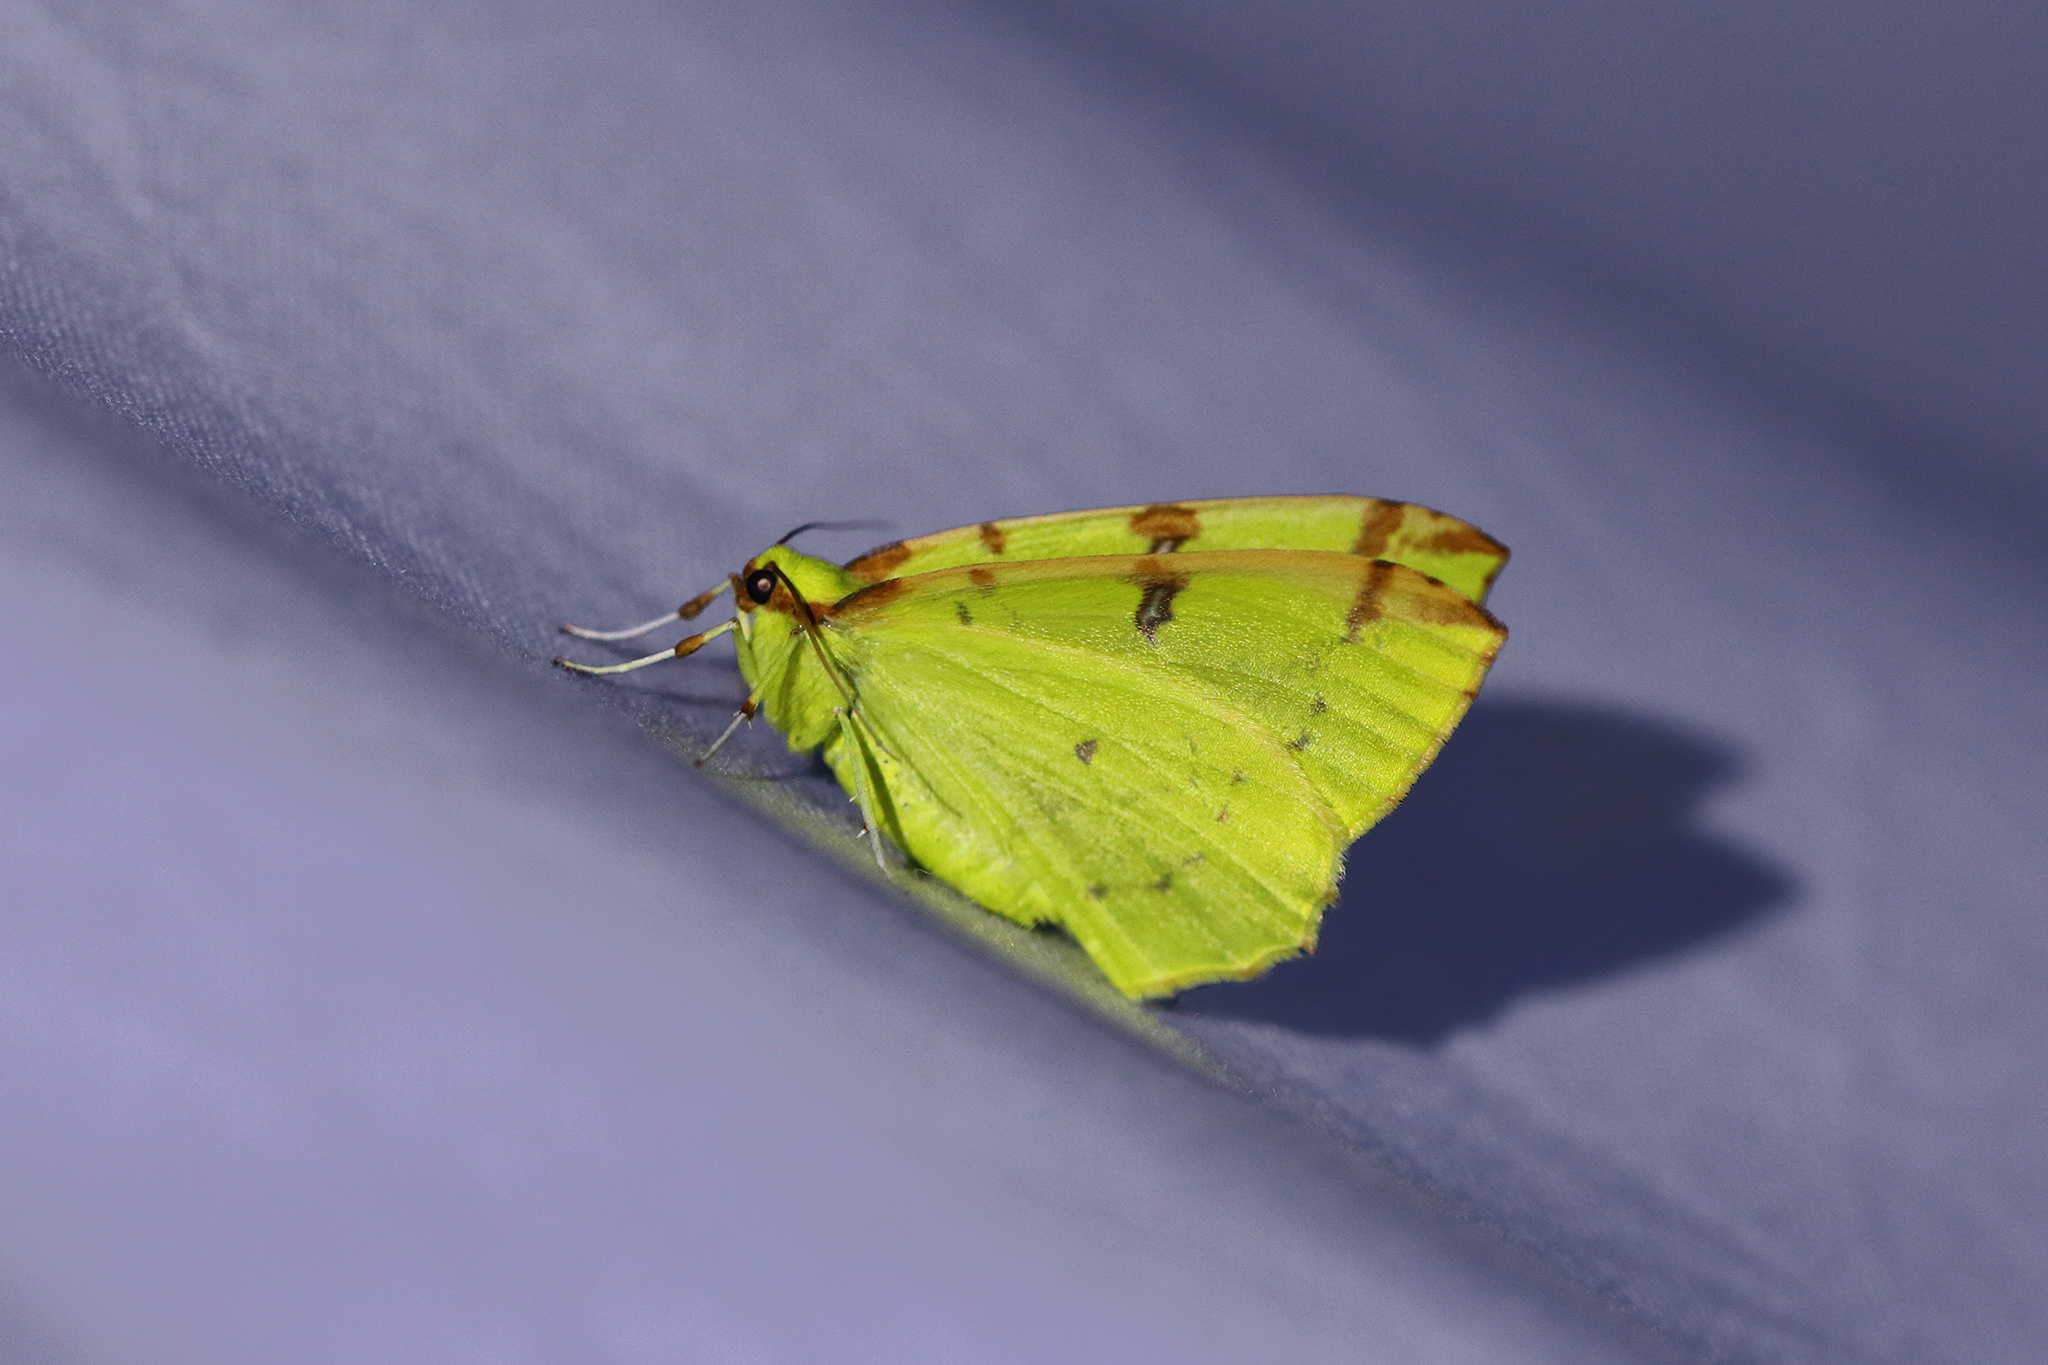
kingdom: Animalia
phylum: Arthropoda
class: Insecta
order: Lepidoptera
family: Geometridae
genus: Opisthograptis
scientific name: Opisthograptis luteolata
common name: Brimstone moth
